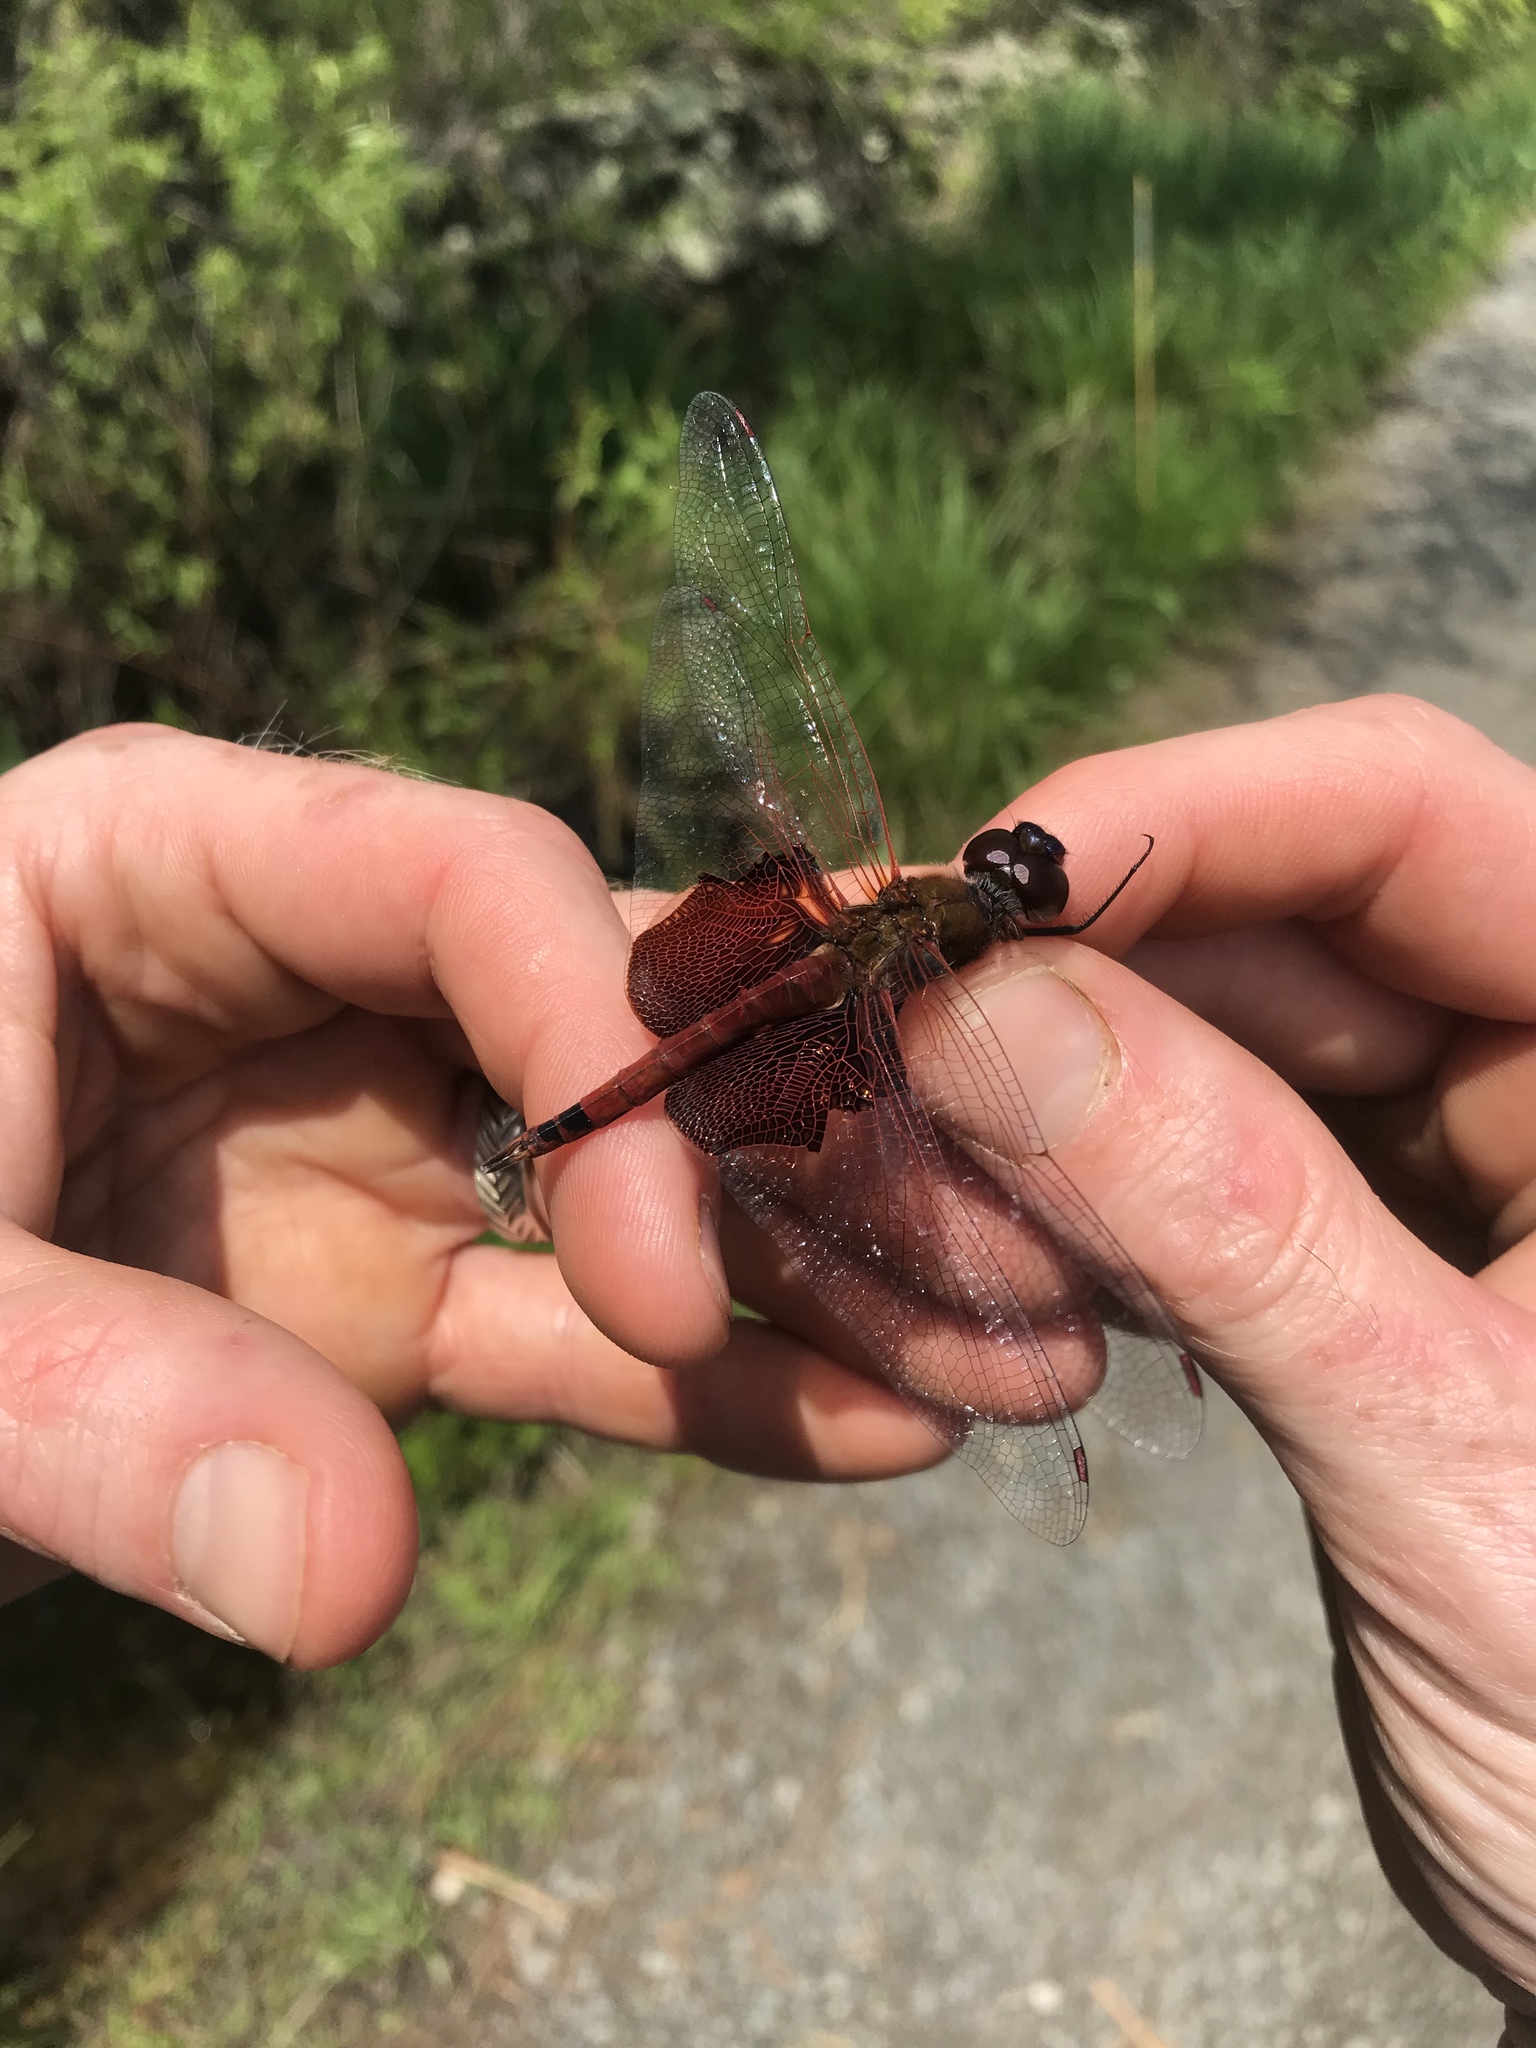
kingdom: Animalia
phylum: Arthropoda
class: Insecta
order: Odonata
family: Libellulidae
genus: Tramea
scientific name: Tramea carolina
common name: Carolina saddlebags
